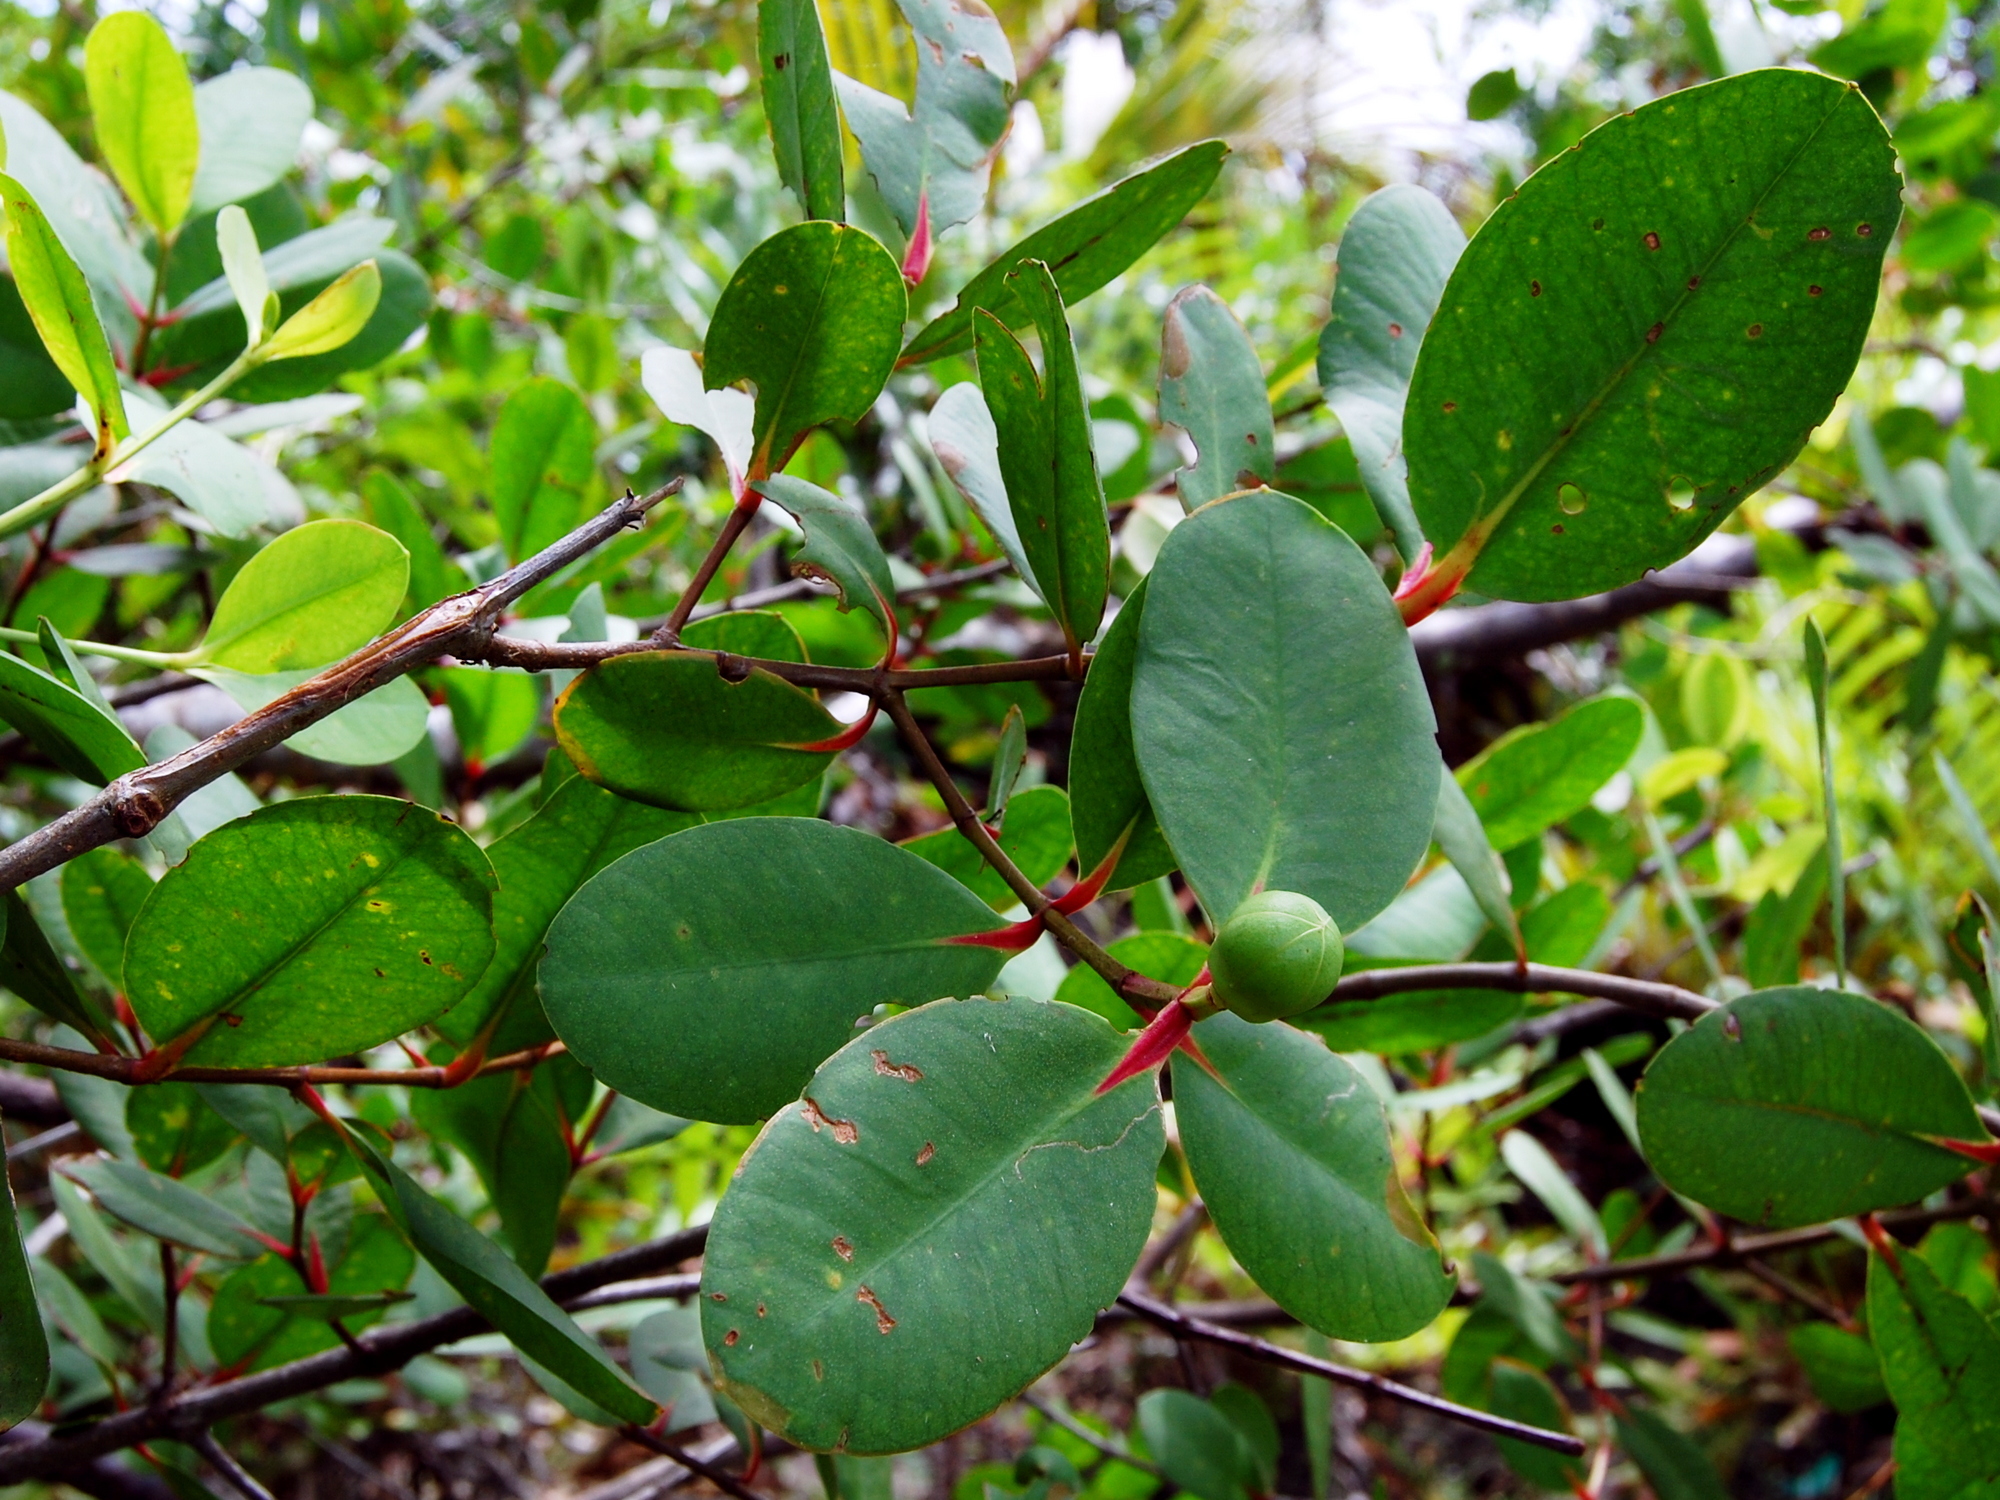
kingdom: Plantae
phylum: Tracheophyta
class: Magnoliopsida
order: Myrtales
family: Lythraceae
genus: Sonneratia
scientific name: Sonneratia caseolaris
